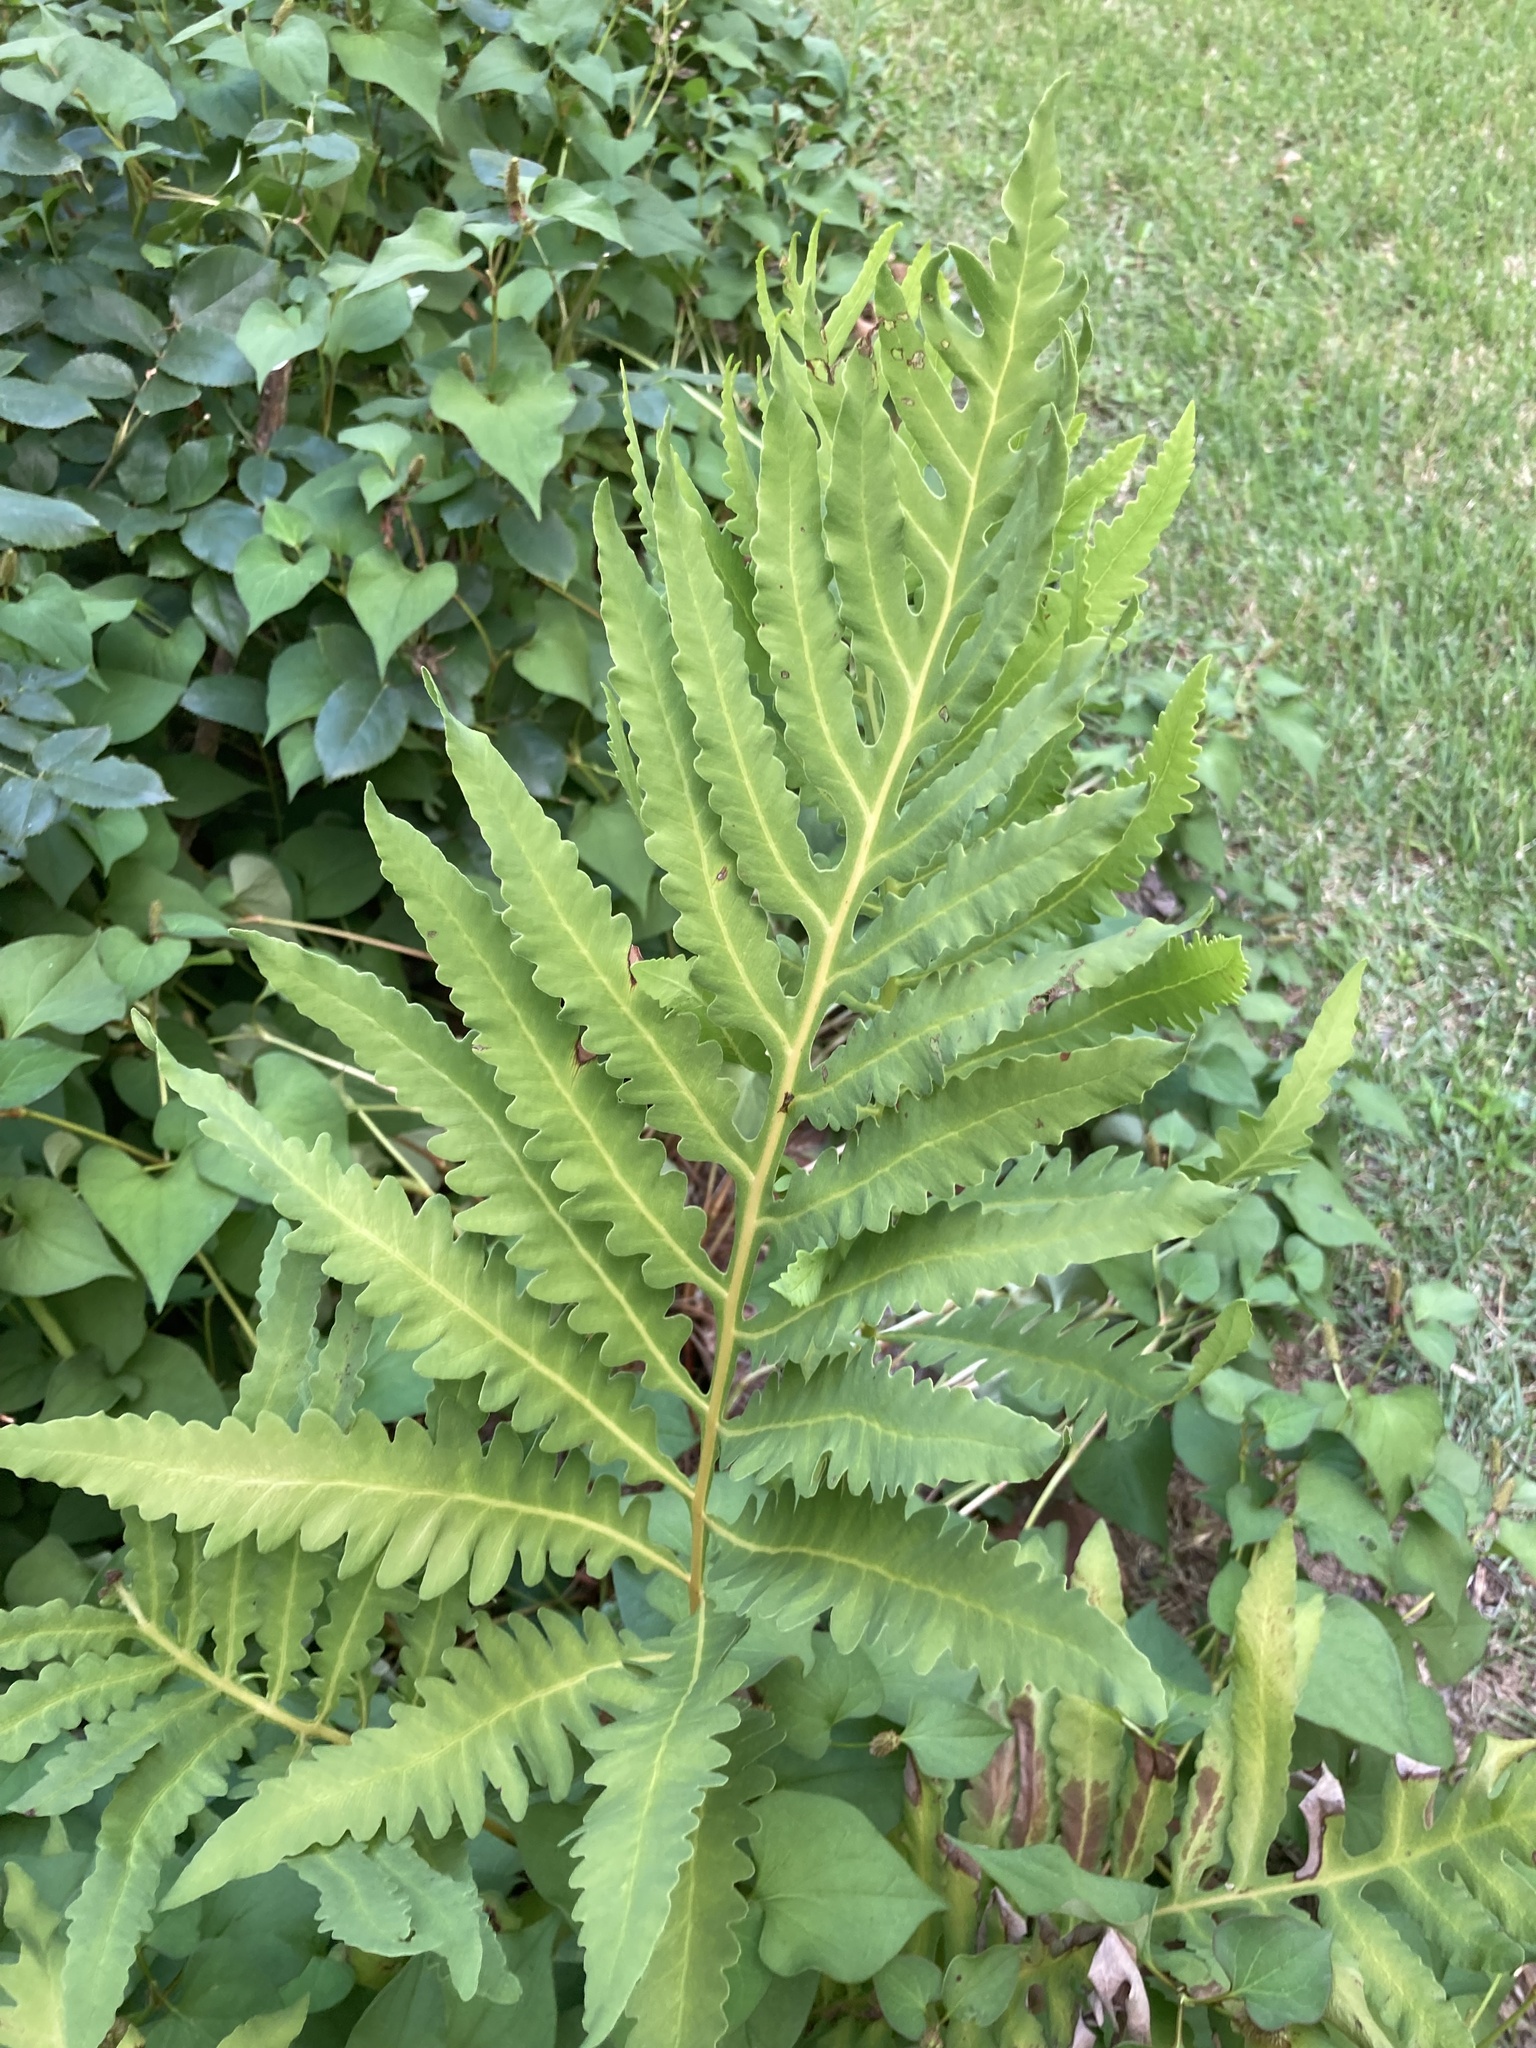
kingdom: Plantae
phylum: Tracheophyta
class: Polypodiopsida
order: Polypodiales
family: Onocleaceae
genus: Onoclea
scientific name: Onoclea sensibilis
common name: Sensitive fern
